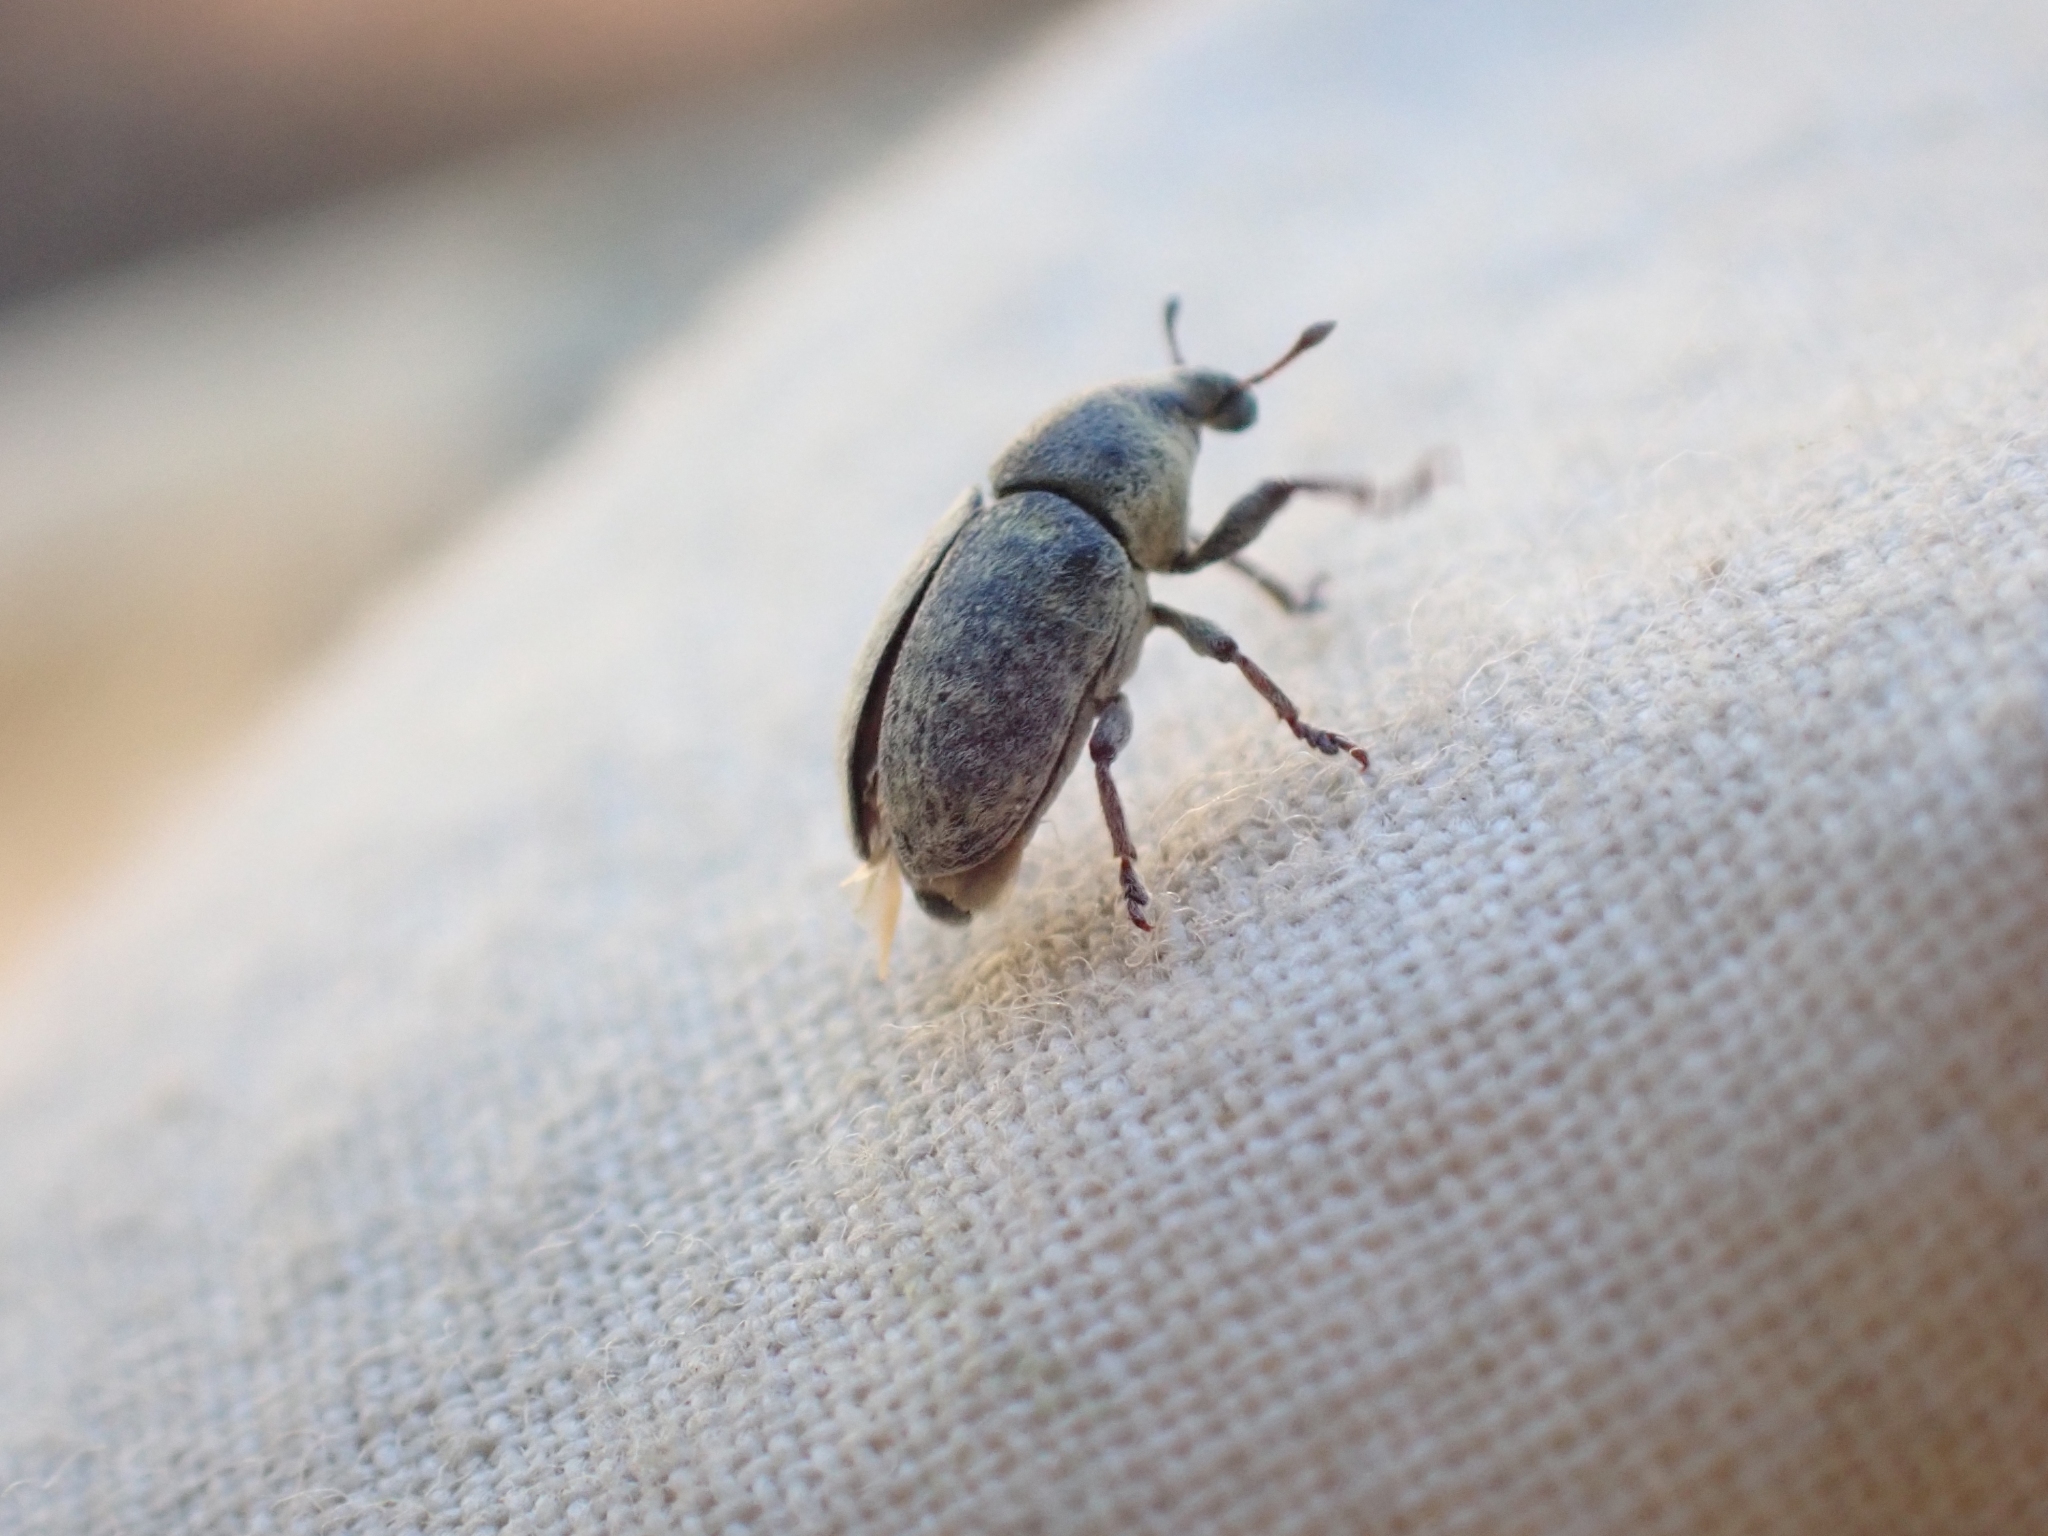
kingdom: Animalia
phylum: Arthropoda
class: Insecta
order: Coleoptera
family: Curculionidae
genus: Larinus
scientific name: Larinus minutus
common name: Weevil
